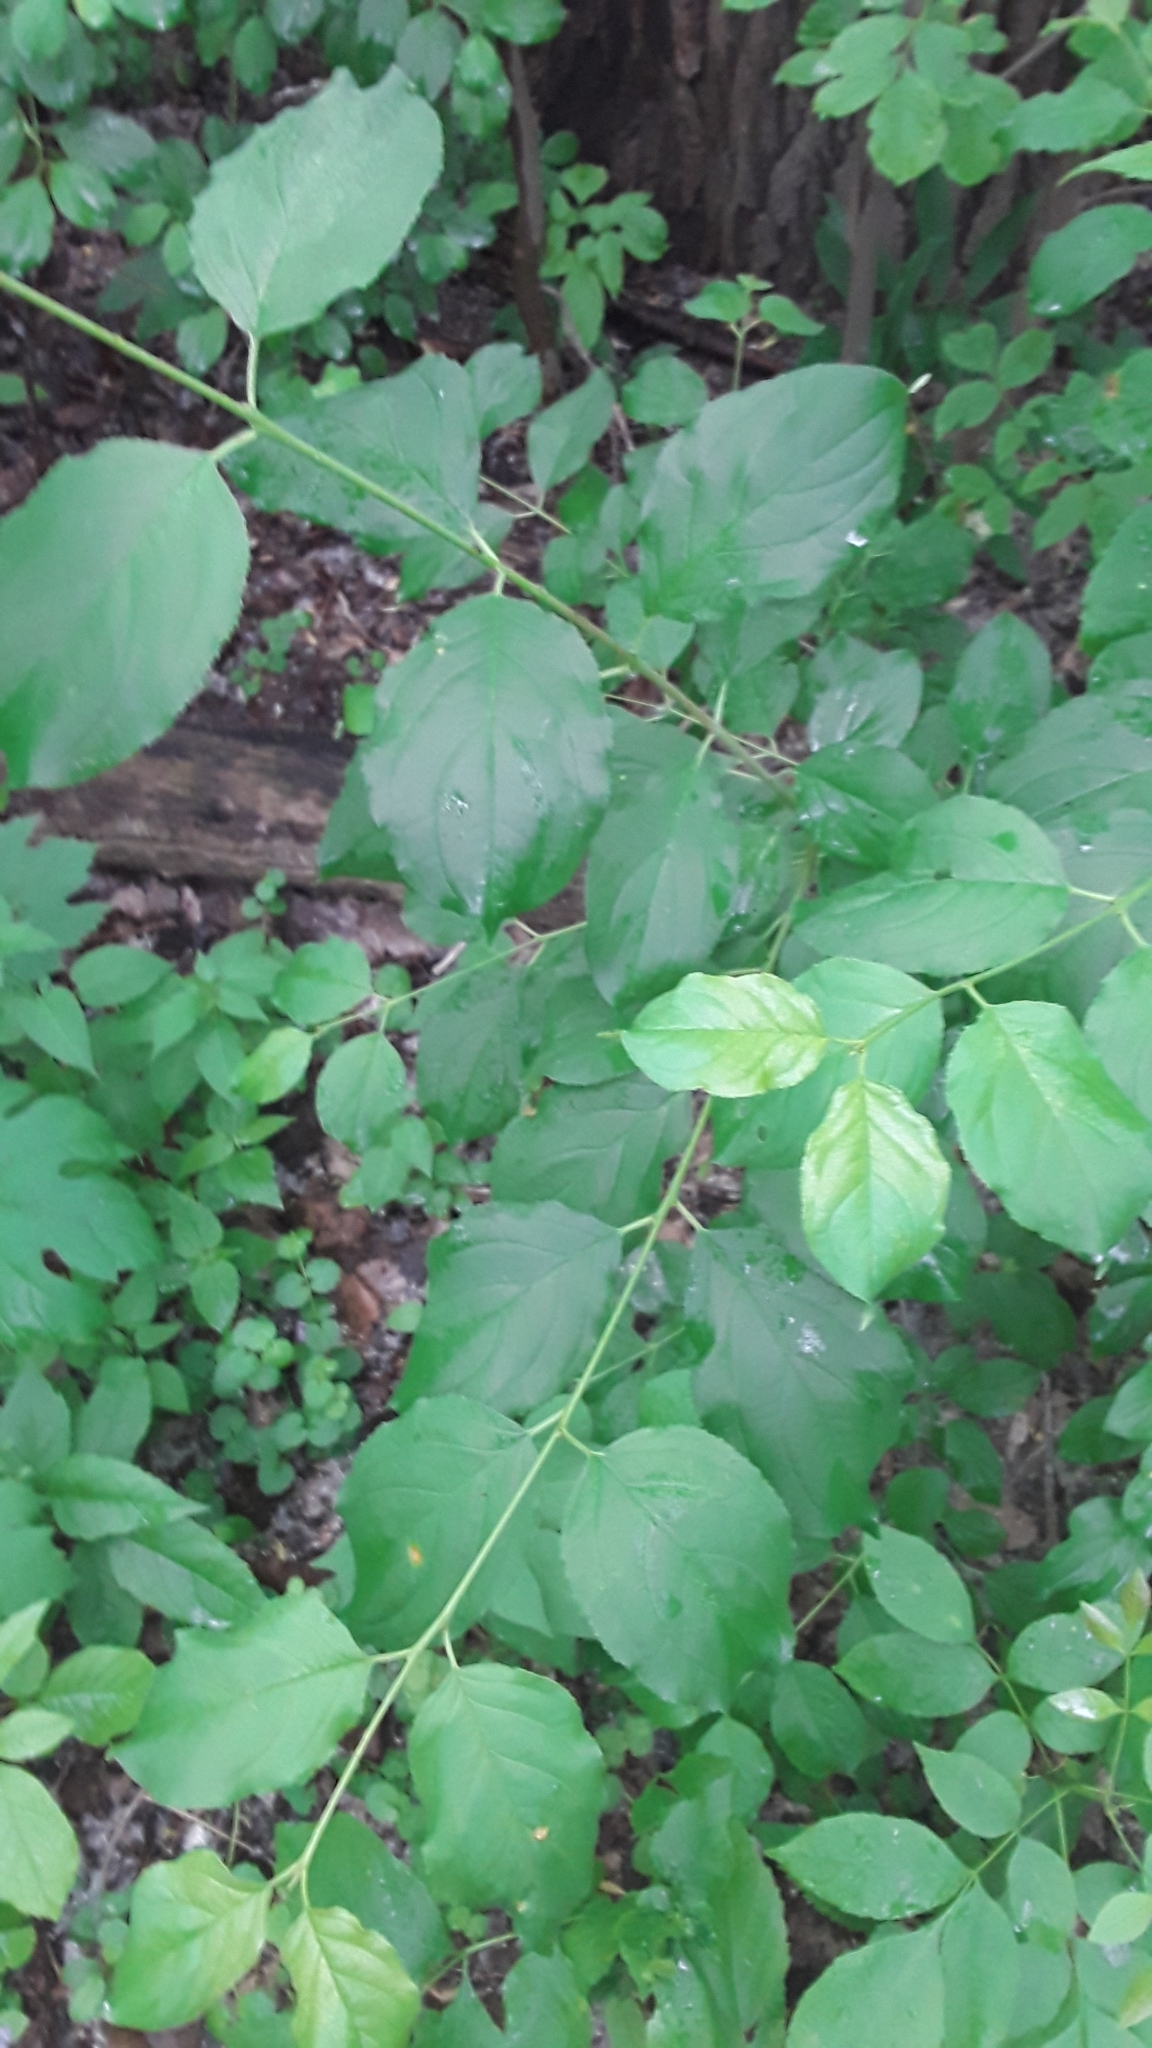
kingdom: Plantae
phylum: Tracheophyta
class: Magnoliopsida
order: Rosales
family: Rhamnaceae
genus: Rhamnus
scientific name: Rhamnus cathartica
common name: Common buckthorn
